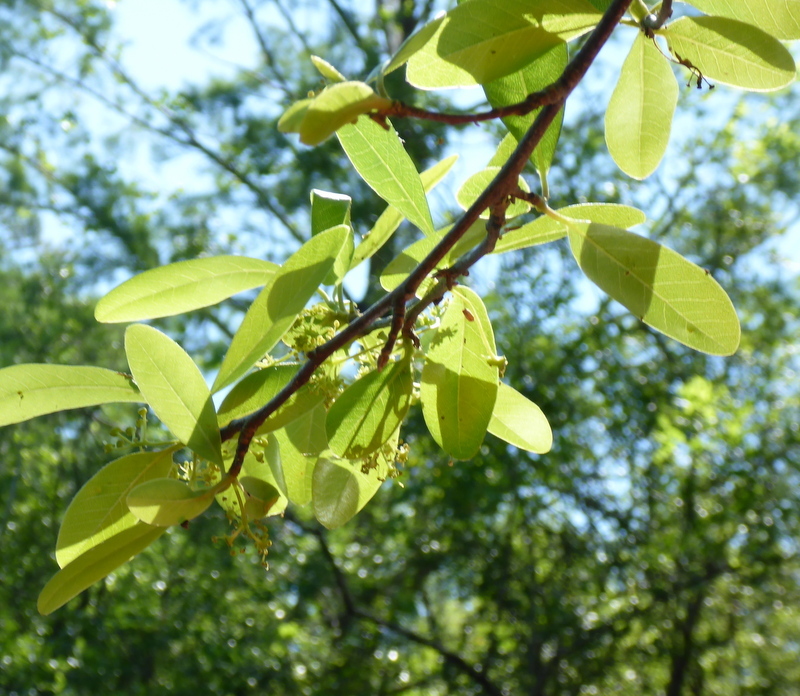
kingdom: Plantae
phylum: Tracheophyta
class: Magnoliopsida
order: Aquifoliales
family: Aquifoliaceae
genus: Ilex
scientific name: Ilex decidua
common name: Possum-haw
